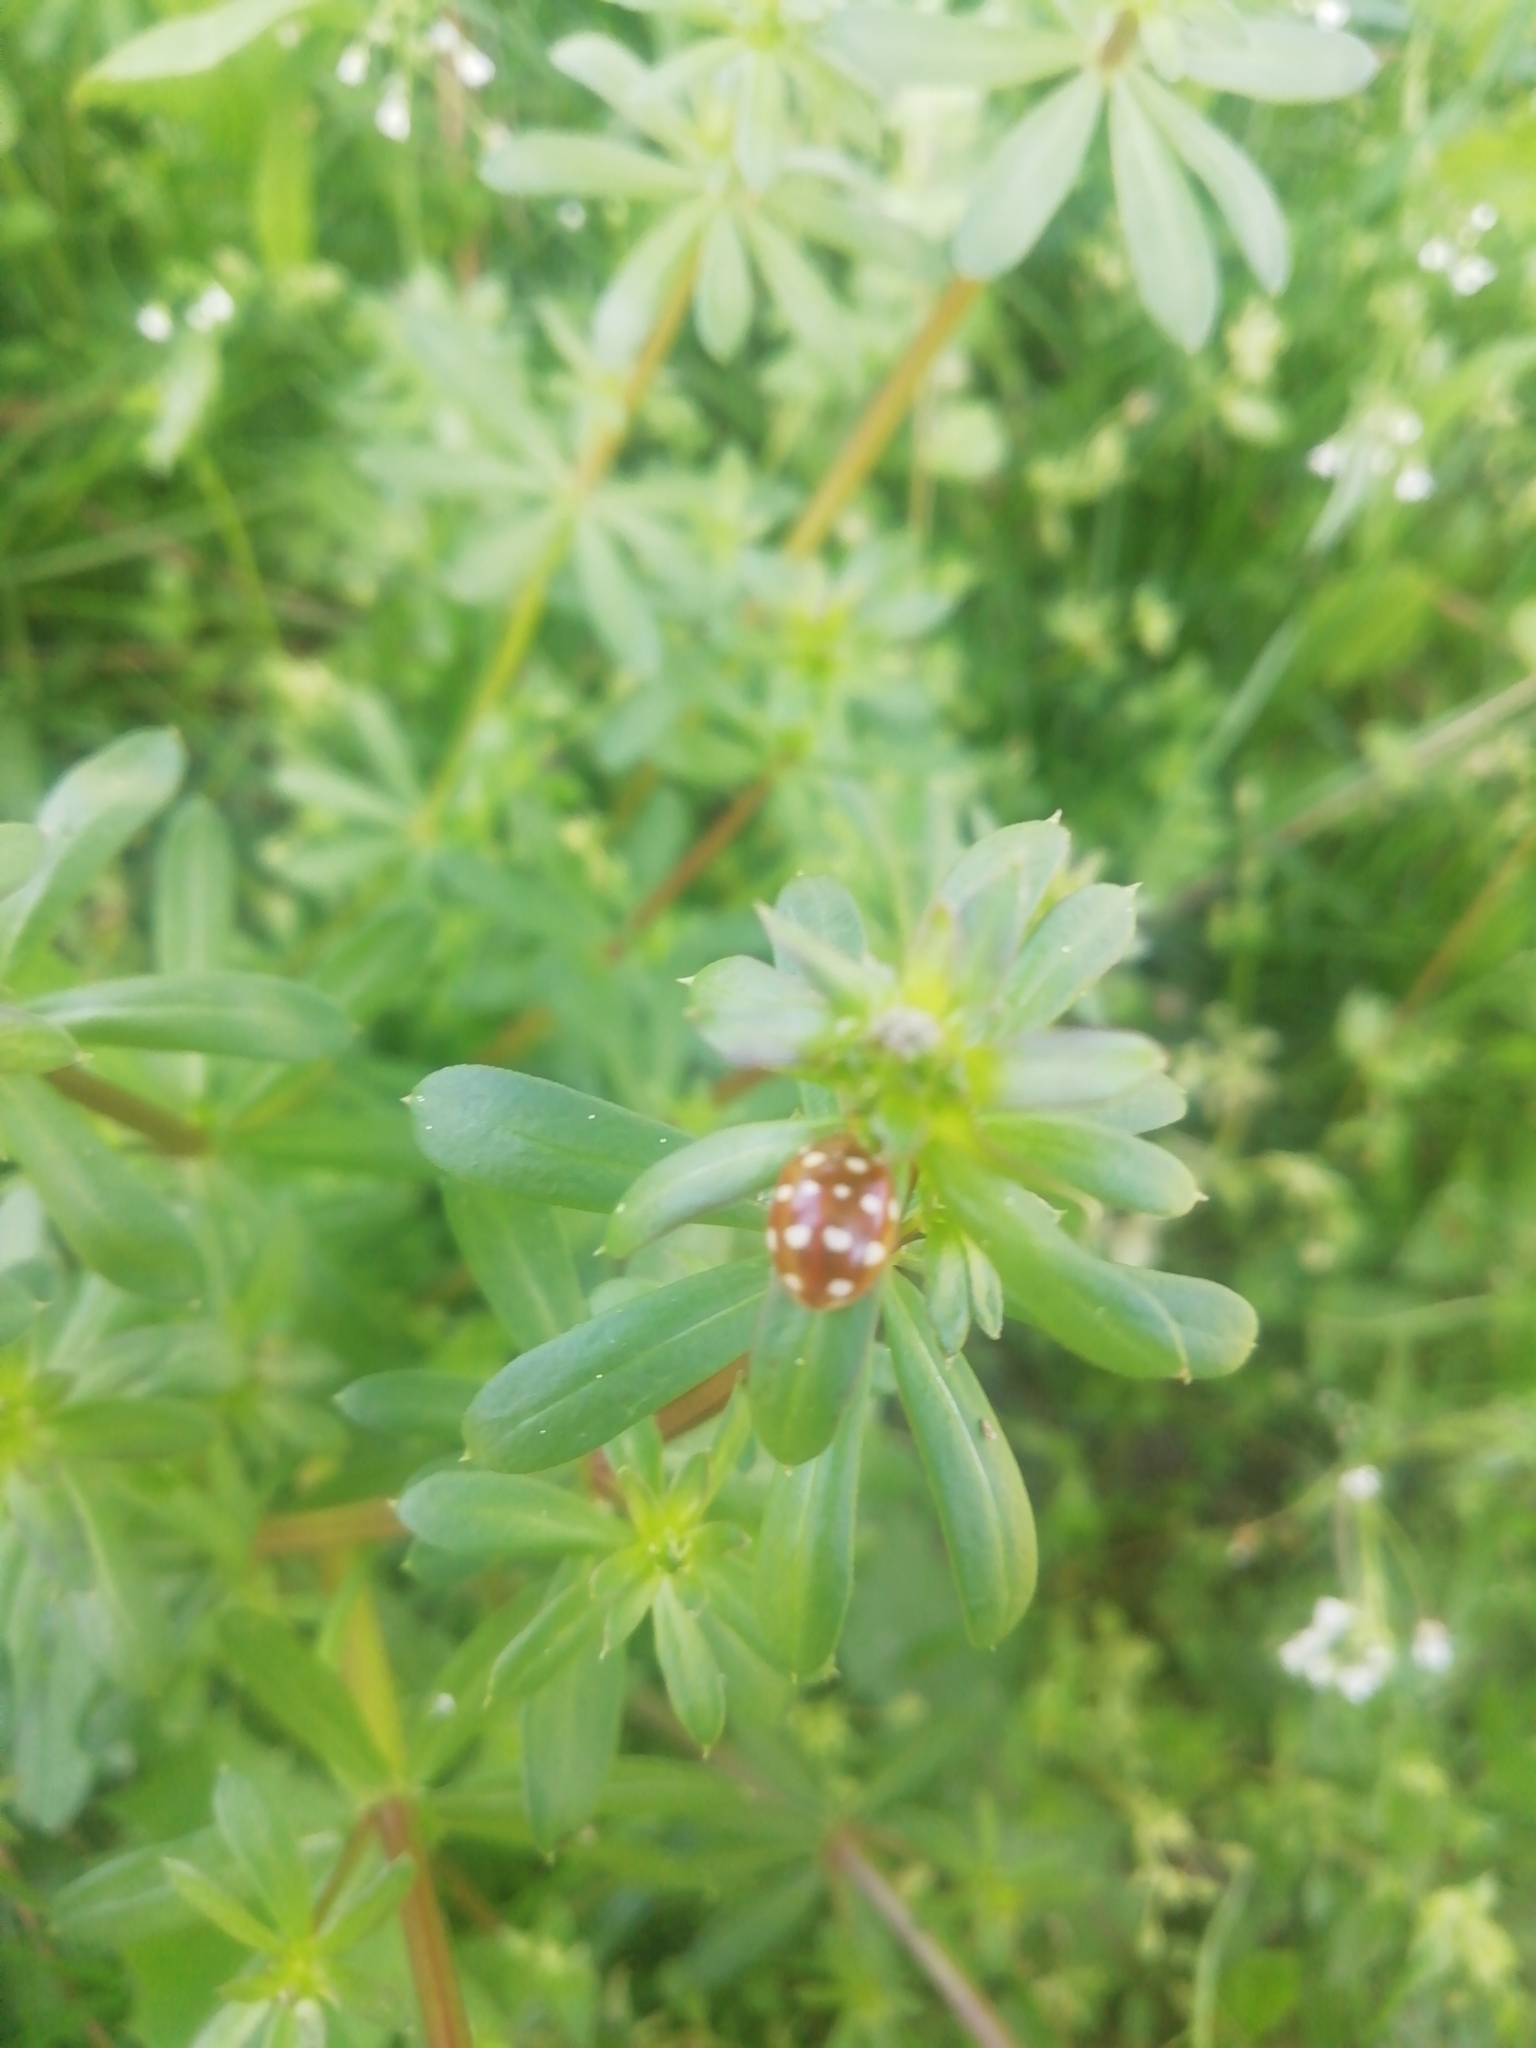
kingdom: Animalia
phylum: Arthropoda
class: Insecta
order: Coleoptera
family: Coccinellidae
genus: Calvia
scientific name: Calvia quatuordecimguttata
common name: Cream-spot ladybird
